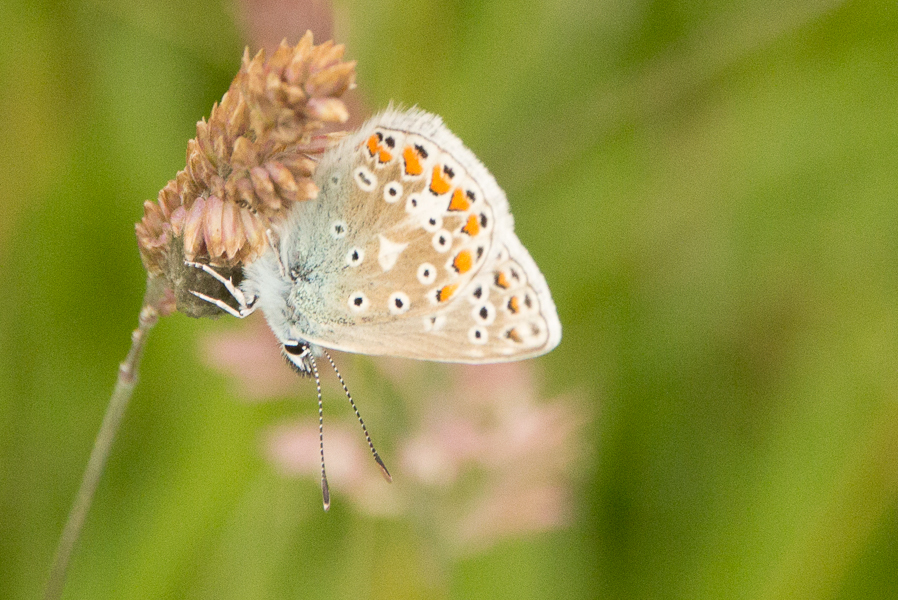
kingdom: Animalia
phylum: Arthropoda
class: Insecta
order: Lepidoptera
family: Lycaenidae
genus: Polyommatus
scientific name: Polyommatus icarus
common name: Common blue
